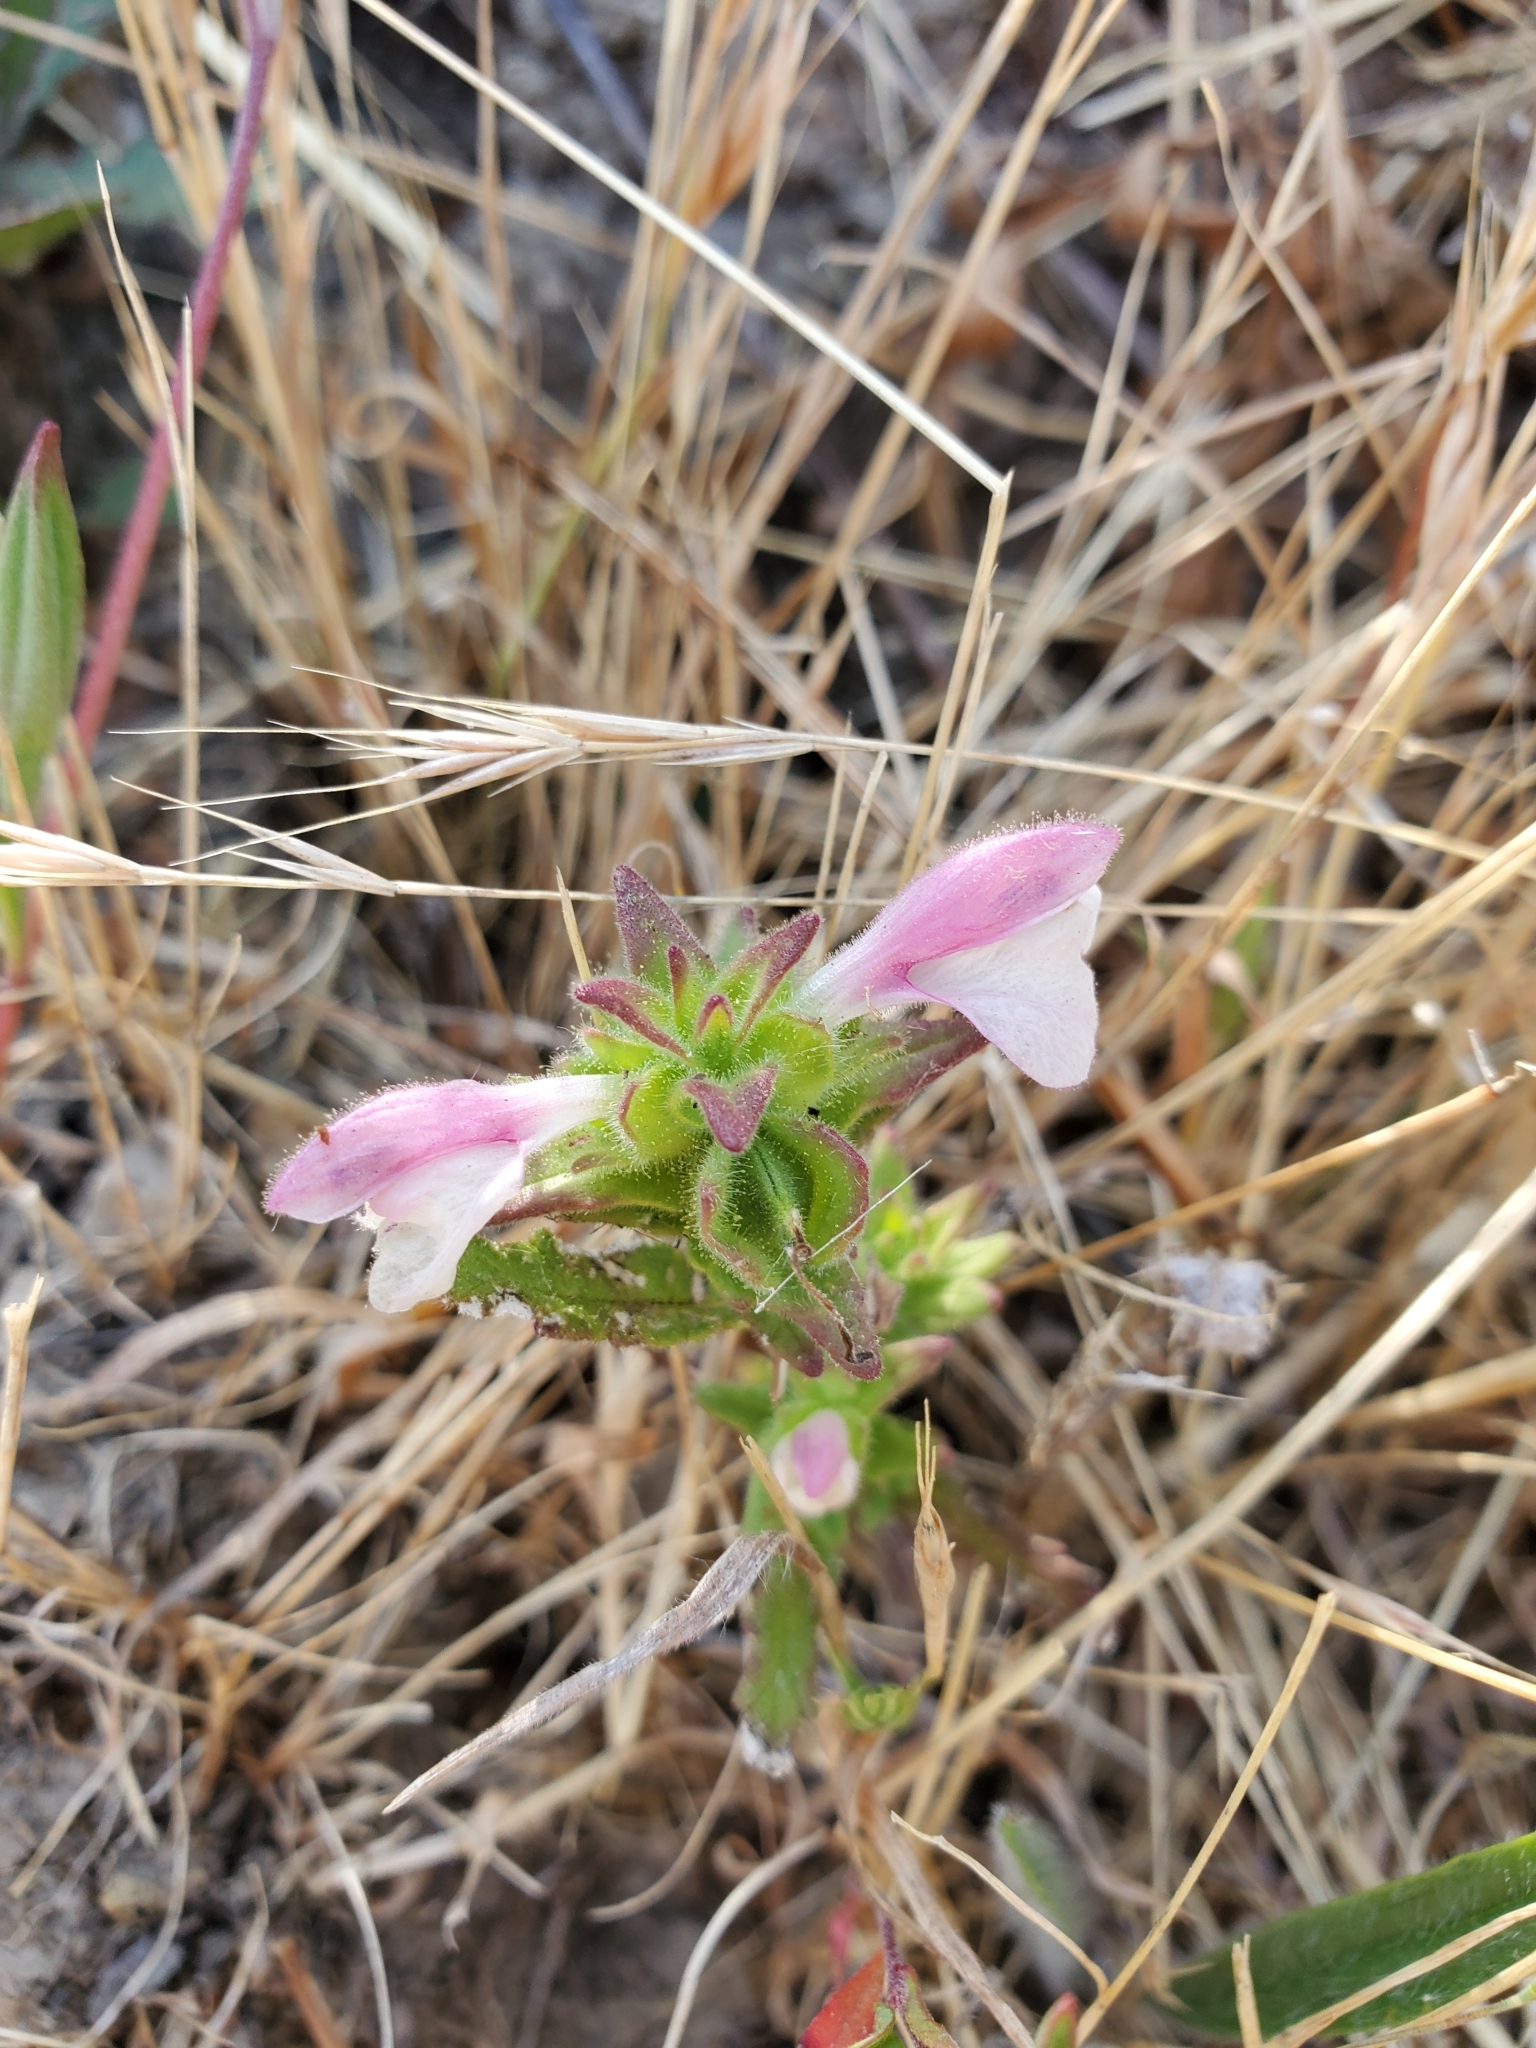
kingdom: Plantae
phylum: Tracheophyta
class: Magnoliopsida
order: Lamiales
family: Orobanchaceae
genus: Bellardia
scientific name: Bellardia trixago
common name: Mediterranean lineseed
